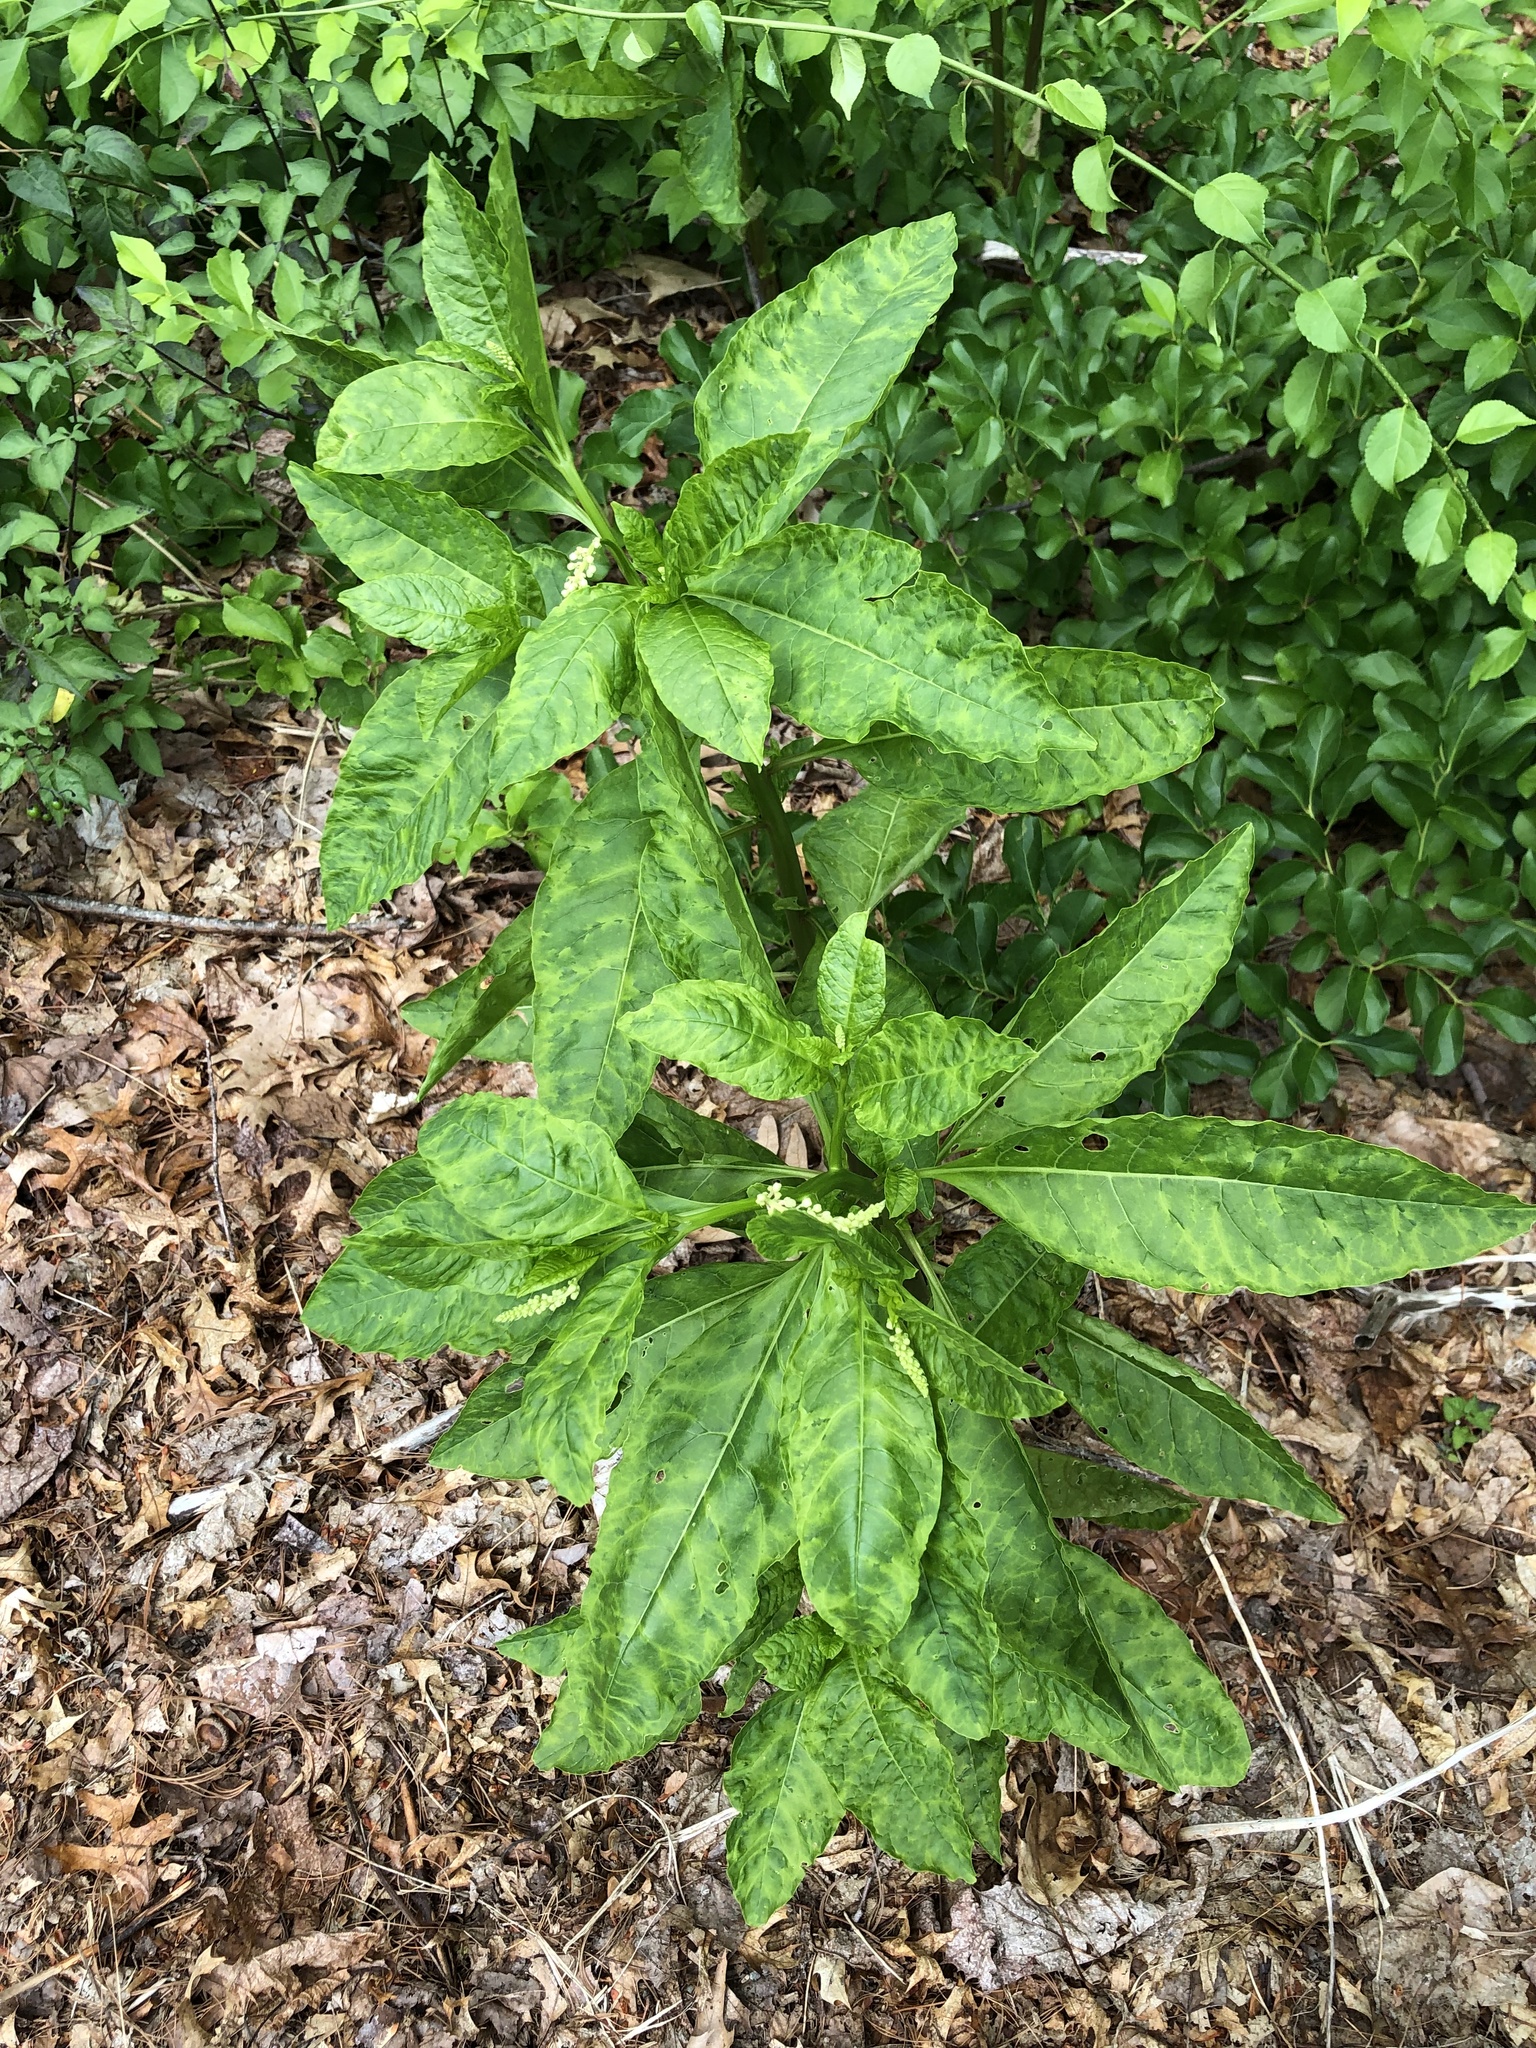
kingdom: Plantae
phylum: Tracheophyta
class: Magnoliopsida
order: Caryophyllales
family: Phytolaccaceae
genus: Phytolacca
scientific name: Phytolacca americana
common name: American pokeweed
